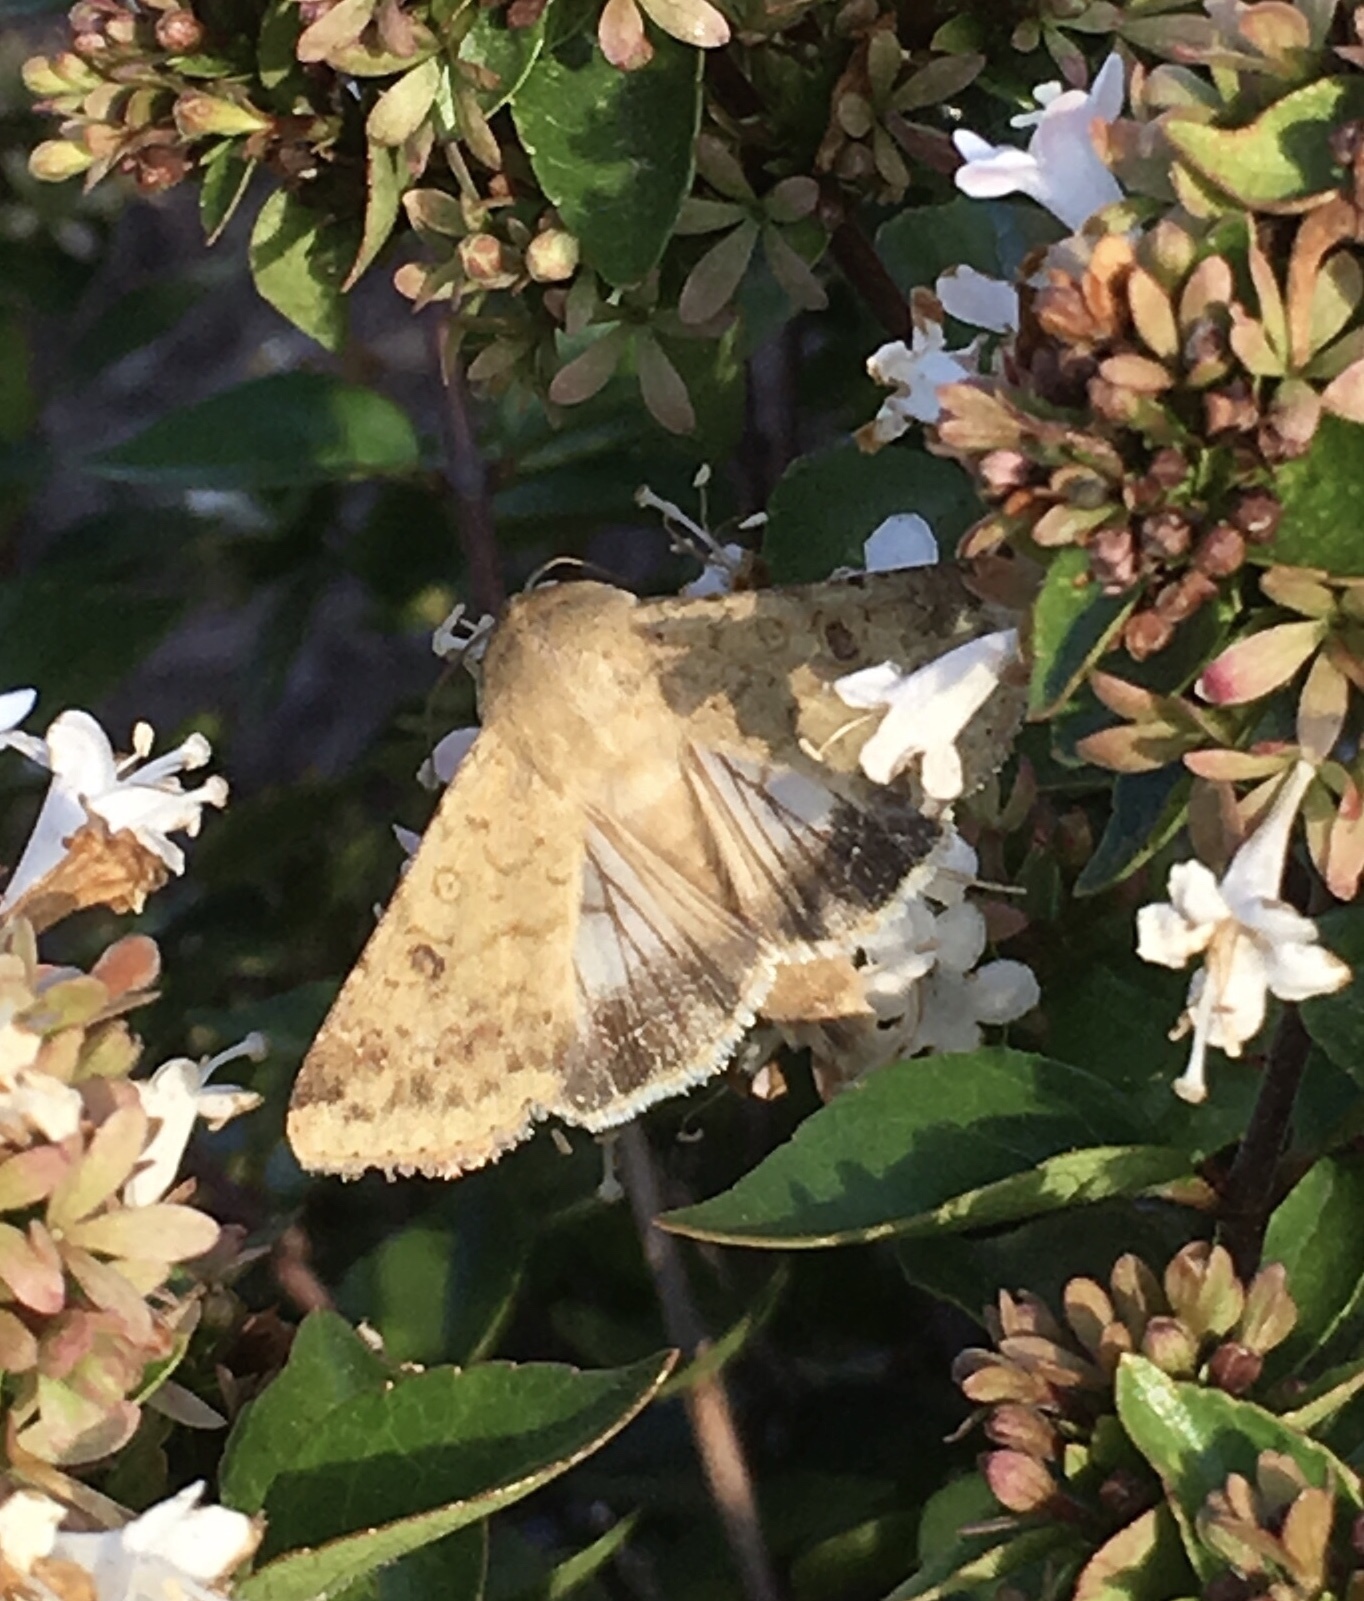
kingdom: Animalia
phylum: Arthropoda
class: Insecta
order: Lepidoptera
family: Noctuidae
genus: Helicoverpa
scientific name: Helicoverpa zea
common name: Bollworm
